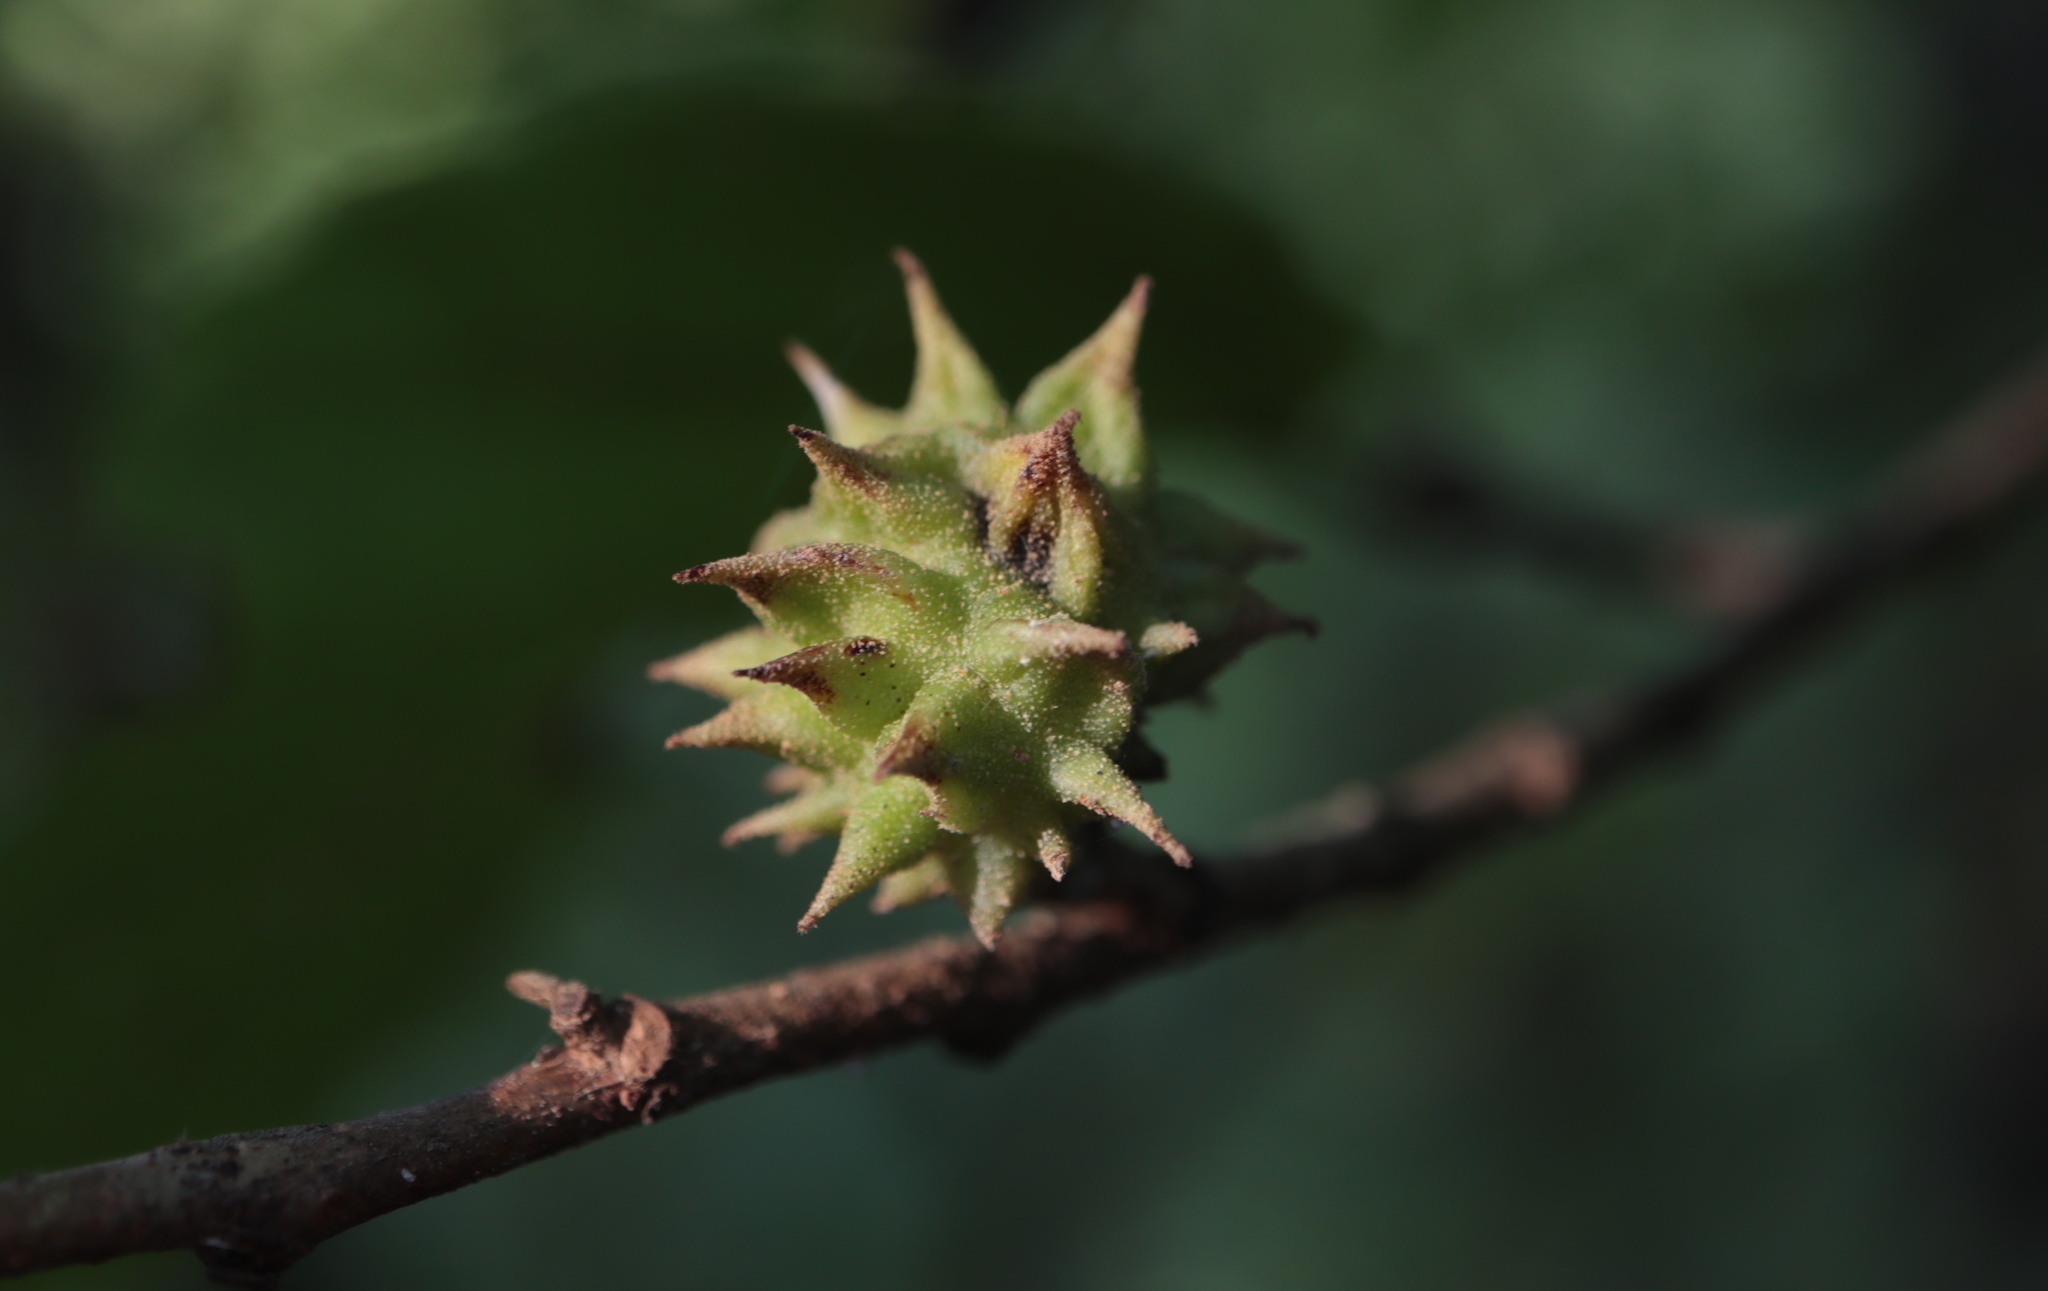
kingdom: Animalia
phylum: Arthropoda
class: Insecta
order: Hemiptera
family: Aphididae
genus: Hamamelistes
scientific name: Hamamelistes spinosus
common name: Witch hazel gall aphid
